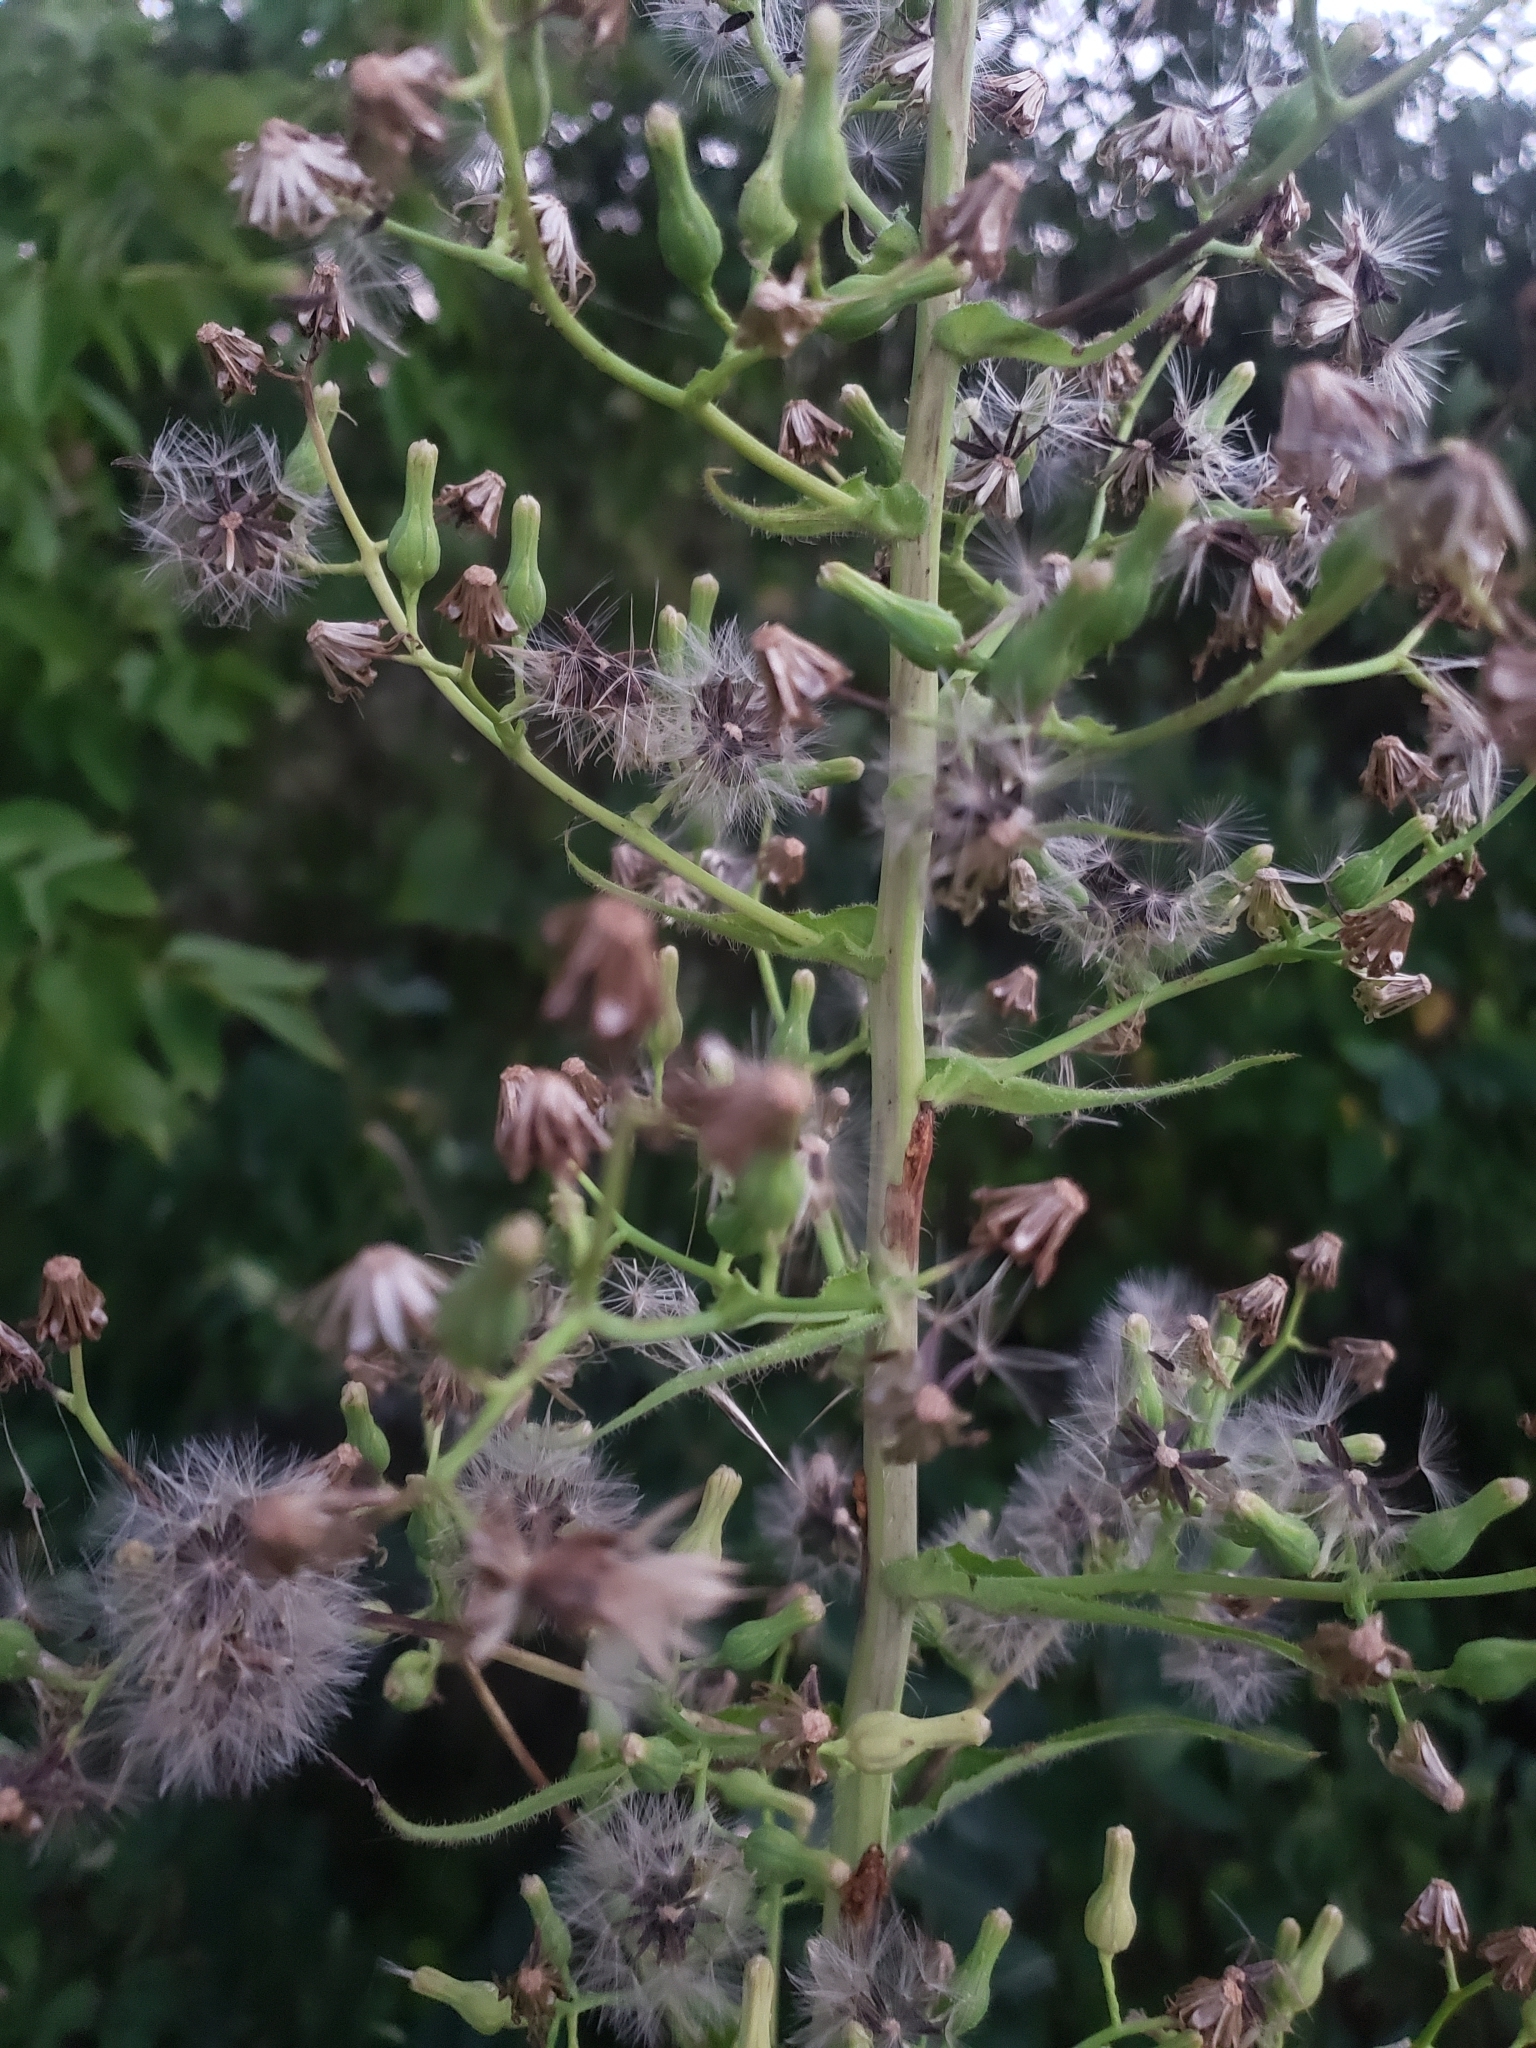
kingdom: Plantae
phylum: Tracheophyta
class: Magnoliopsida
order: Asterales
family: Asteraceae
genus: Lactuca
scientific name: Lactuca biennis
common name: Blue wood lettuce
